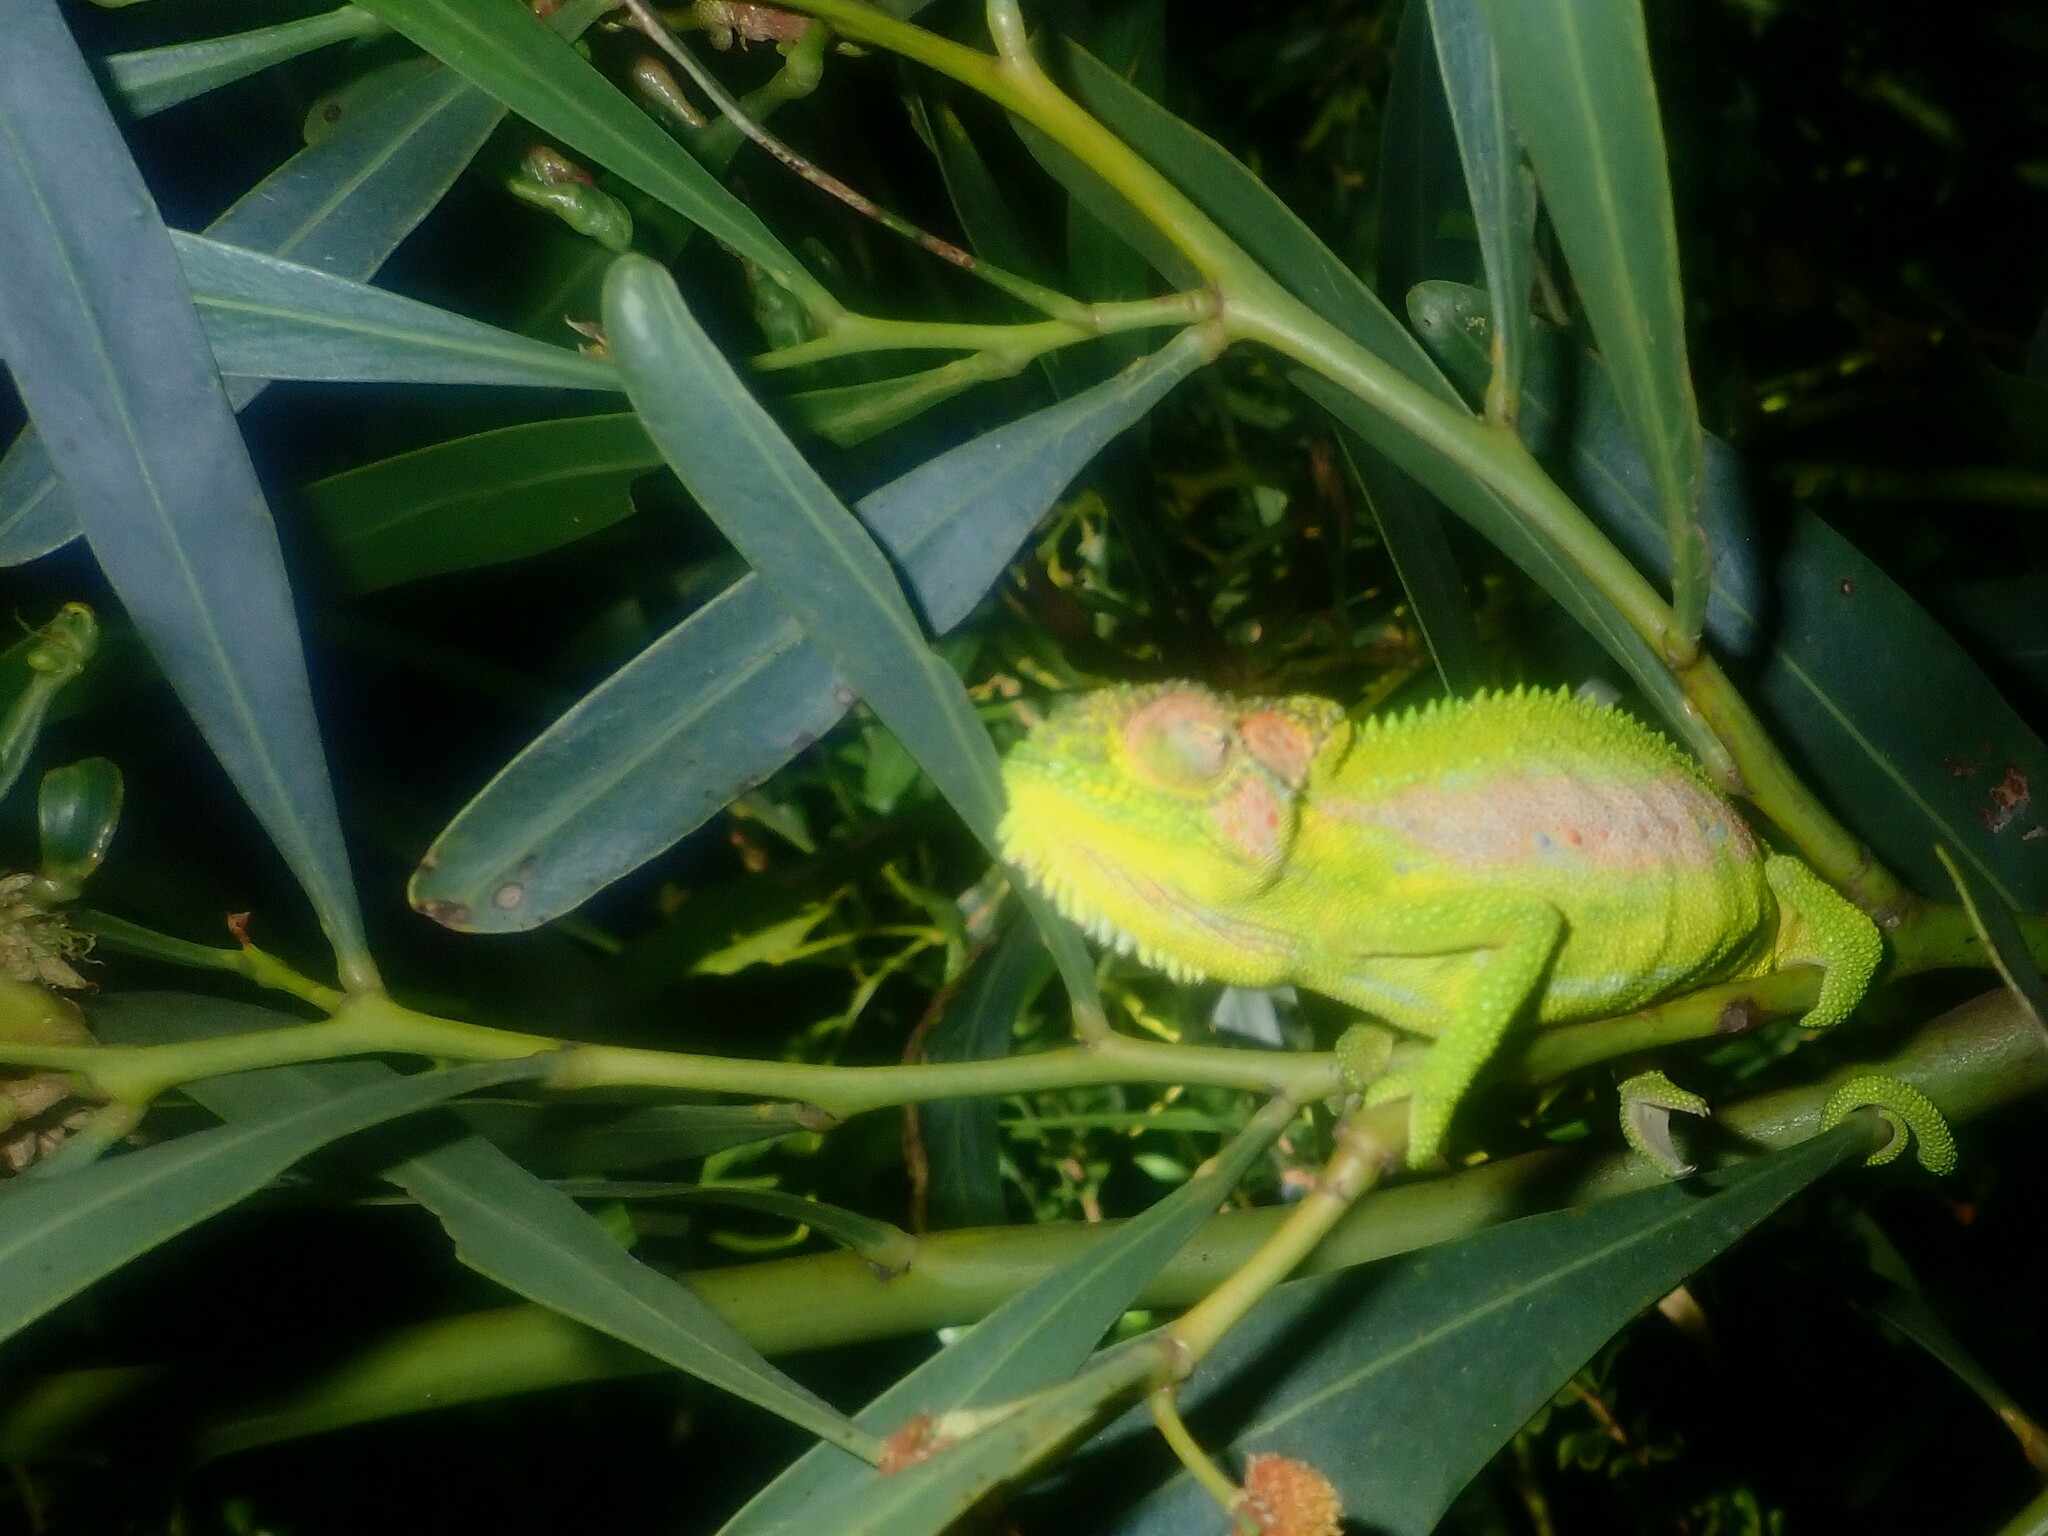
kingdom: Animalia
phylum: Chordata
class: Squamata
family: Chamaeleonidae
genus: Bradypodion
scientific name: Bradypodion pumilum
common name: Cape dwarf chameleon
